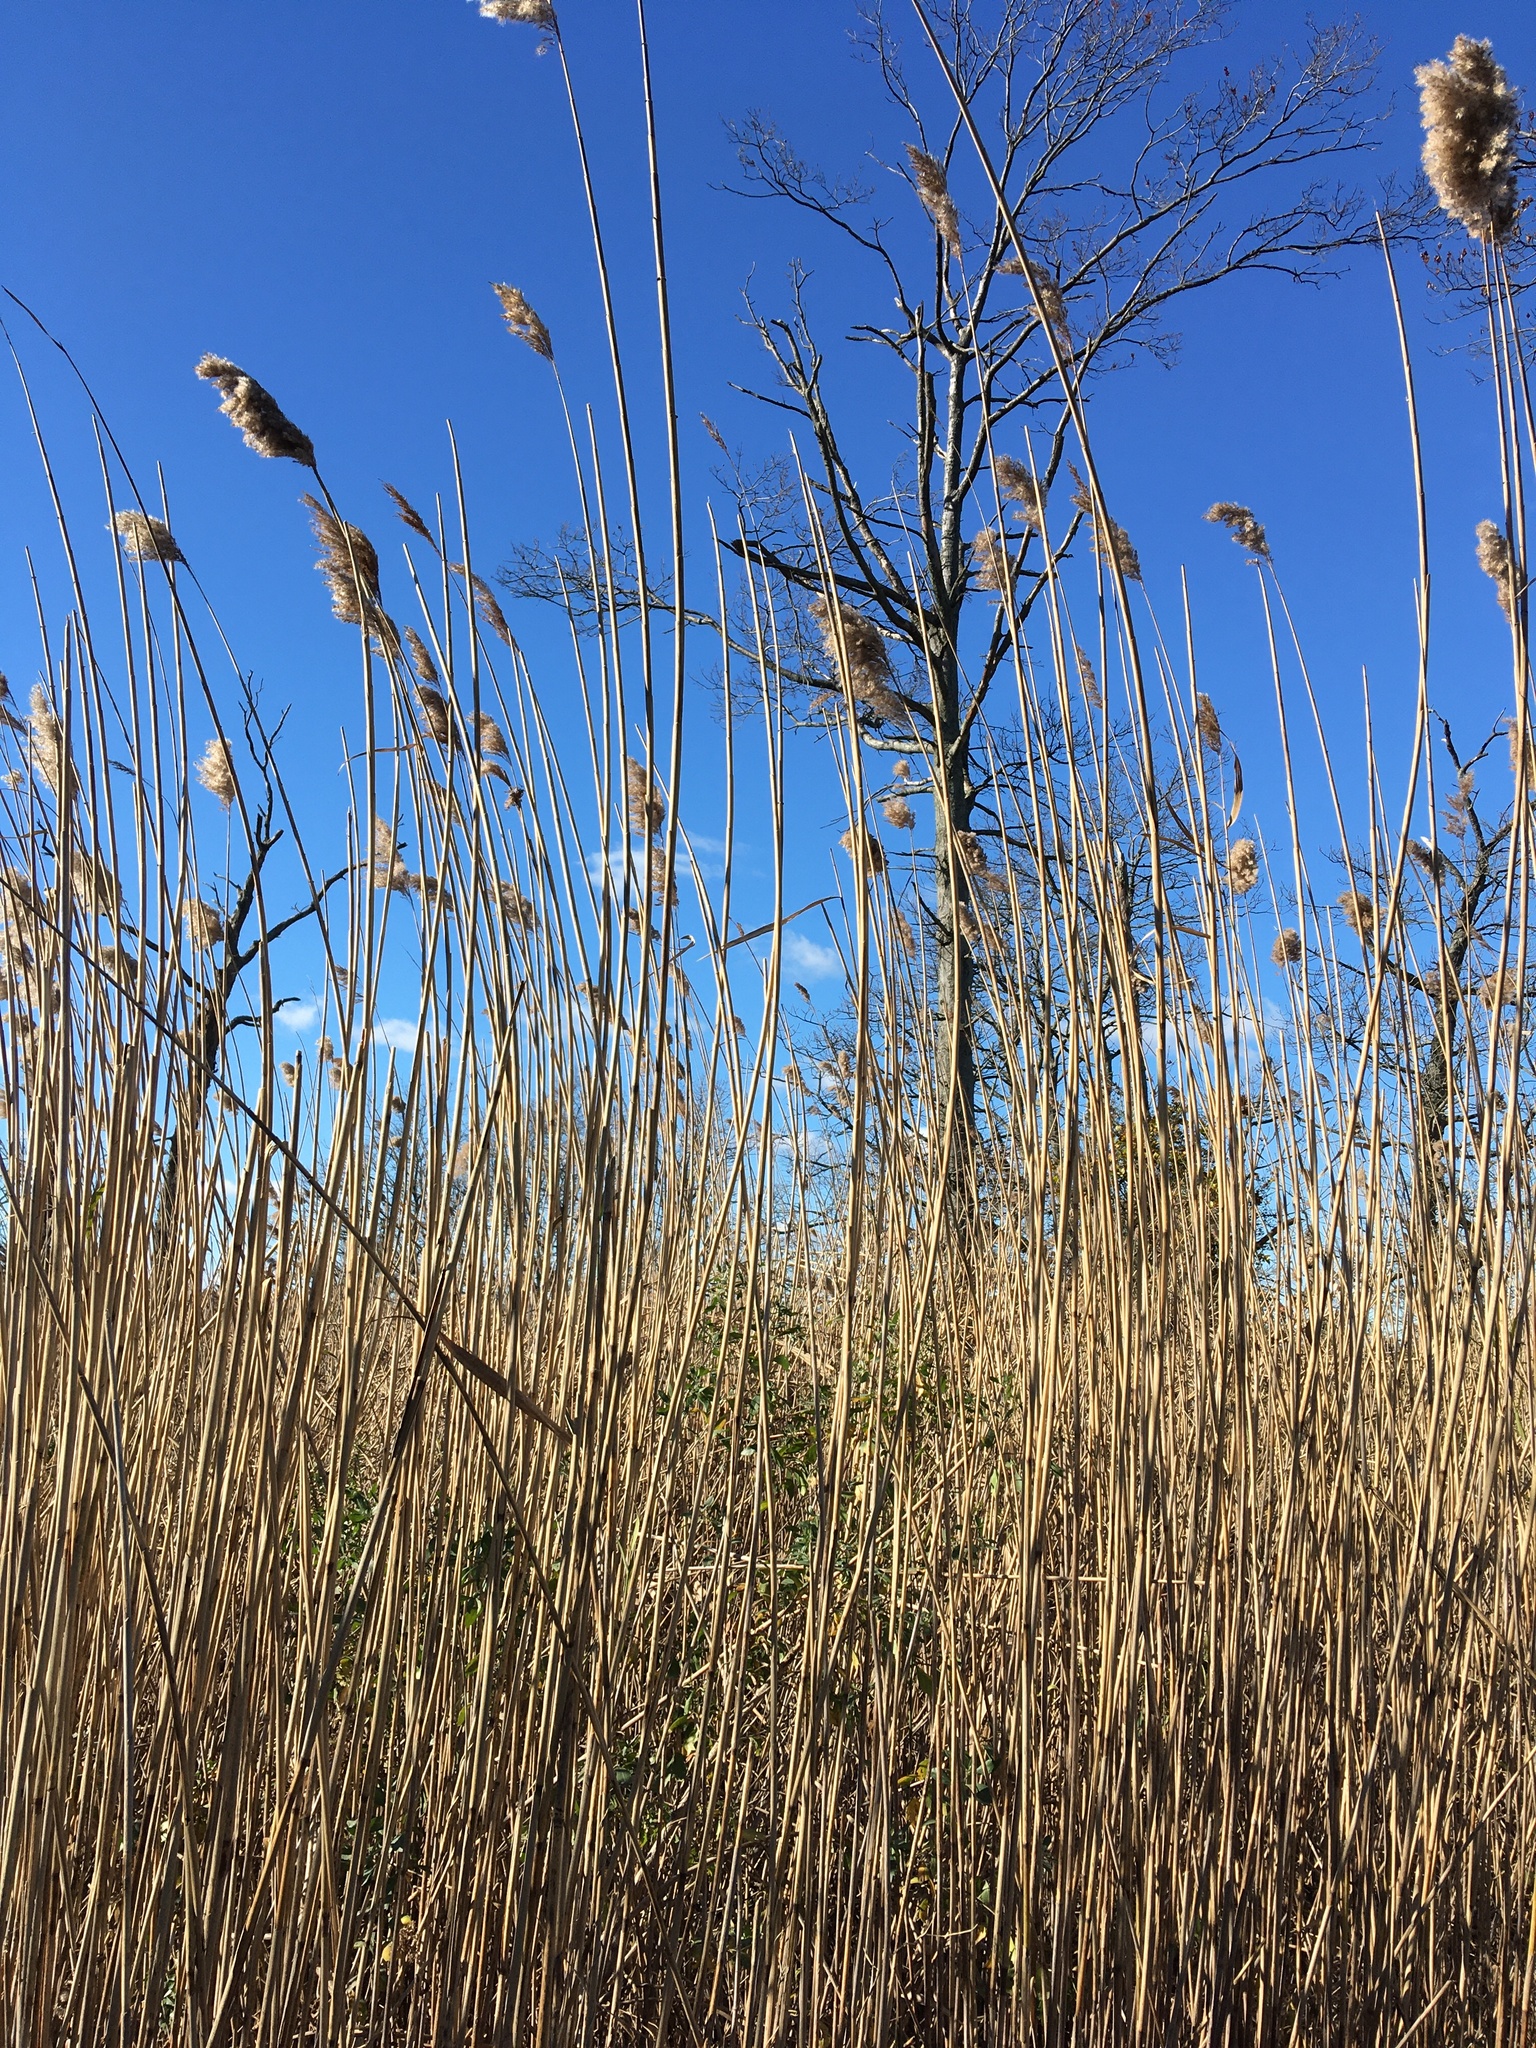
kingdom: Plantae
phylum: Tracheophyta
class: Liliopsida
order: Poales
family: Poaceae
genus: Phragmites
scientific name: Phragmites australis
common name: Common reed
